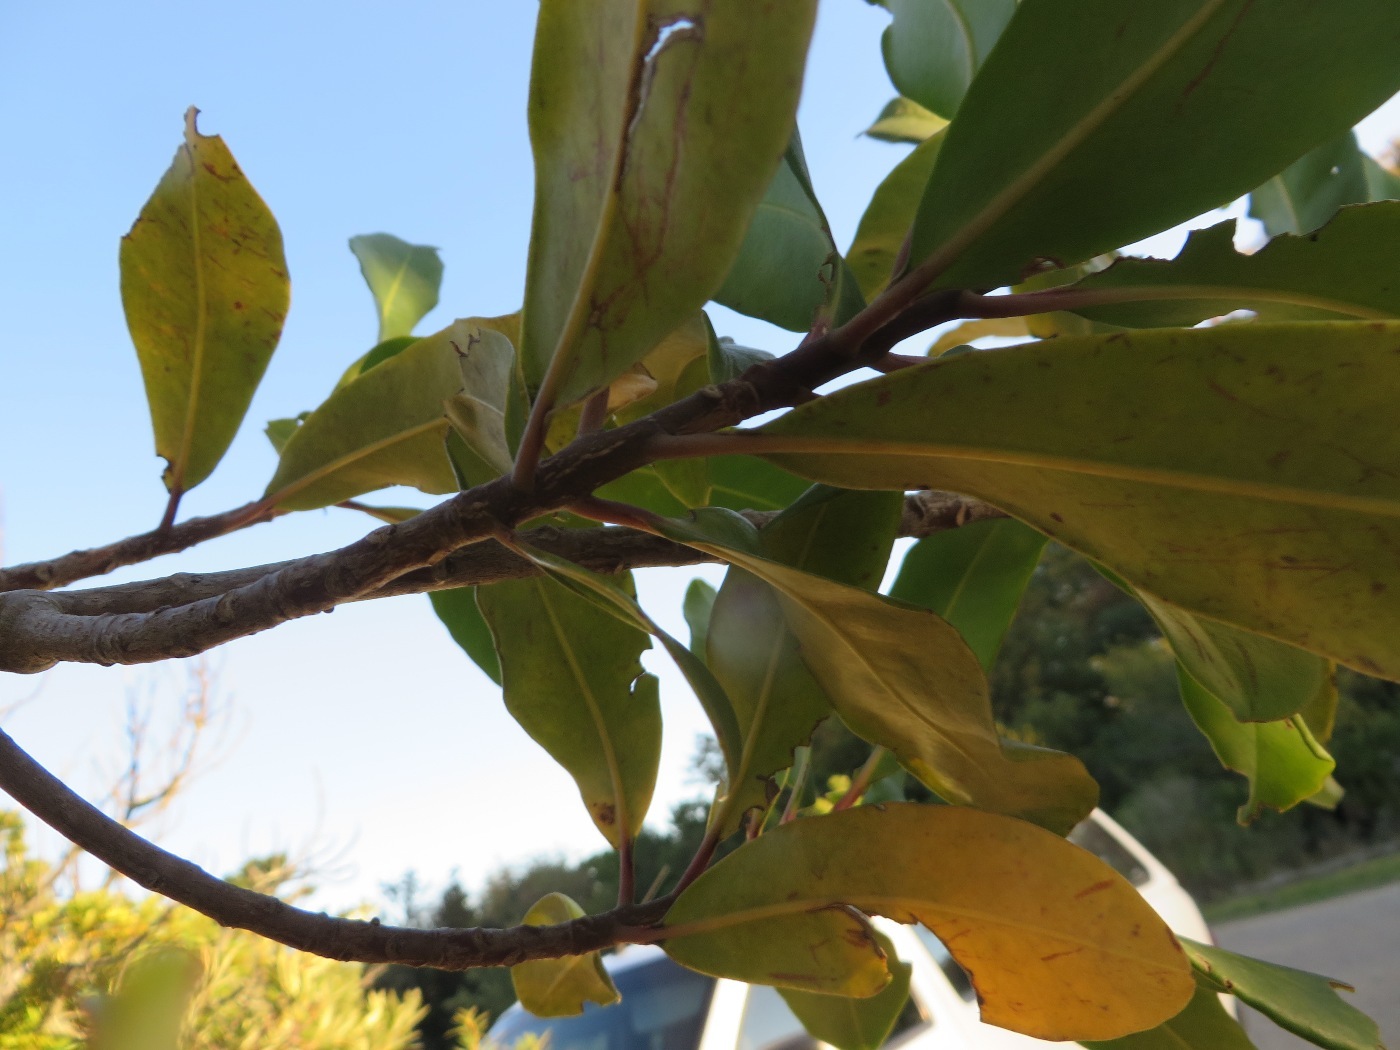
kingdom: Plantae
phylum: Tracheophyta
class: Magnoliopsida
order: Ericales
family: Primulaceae
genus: Myrsine
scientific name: Myrsine melanophloeos
